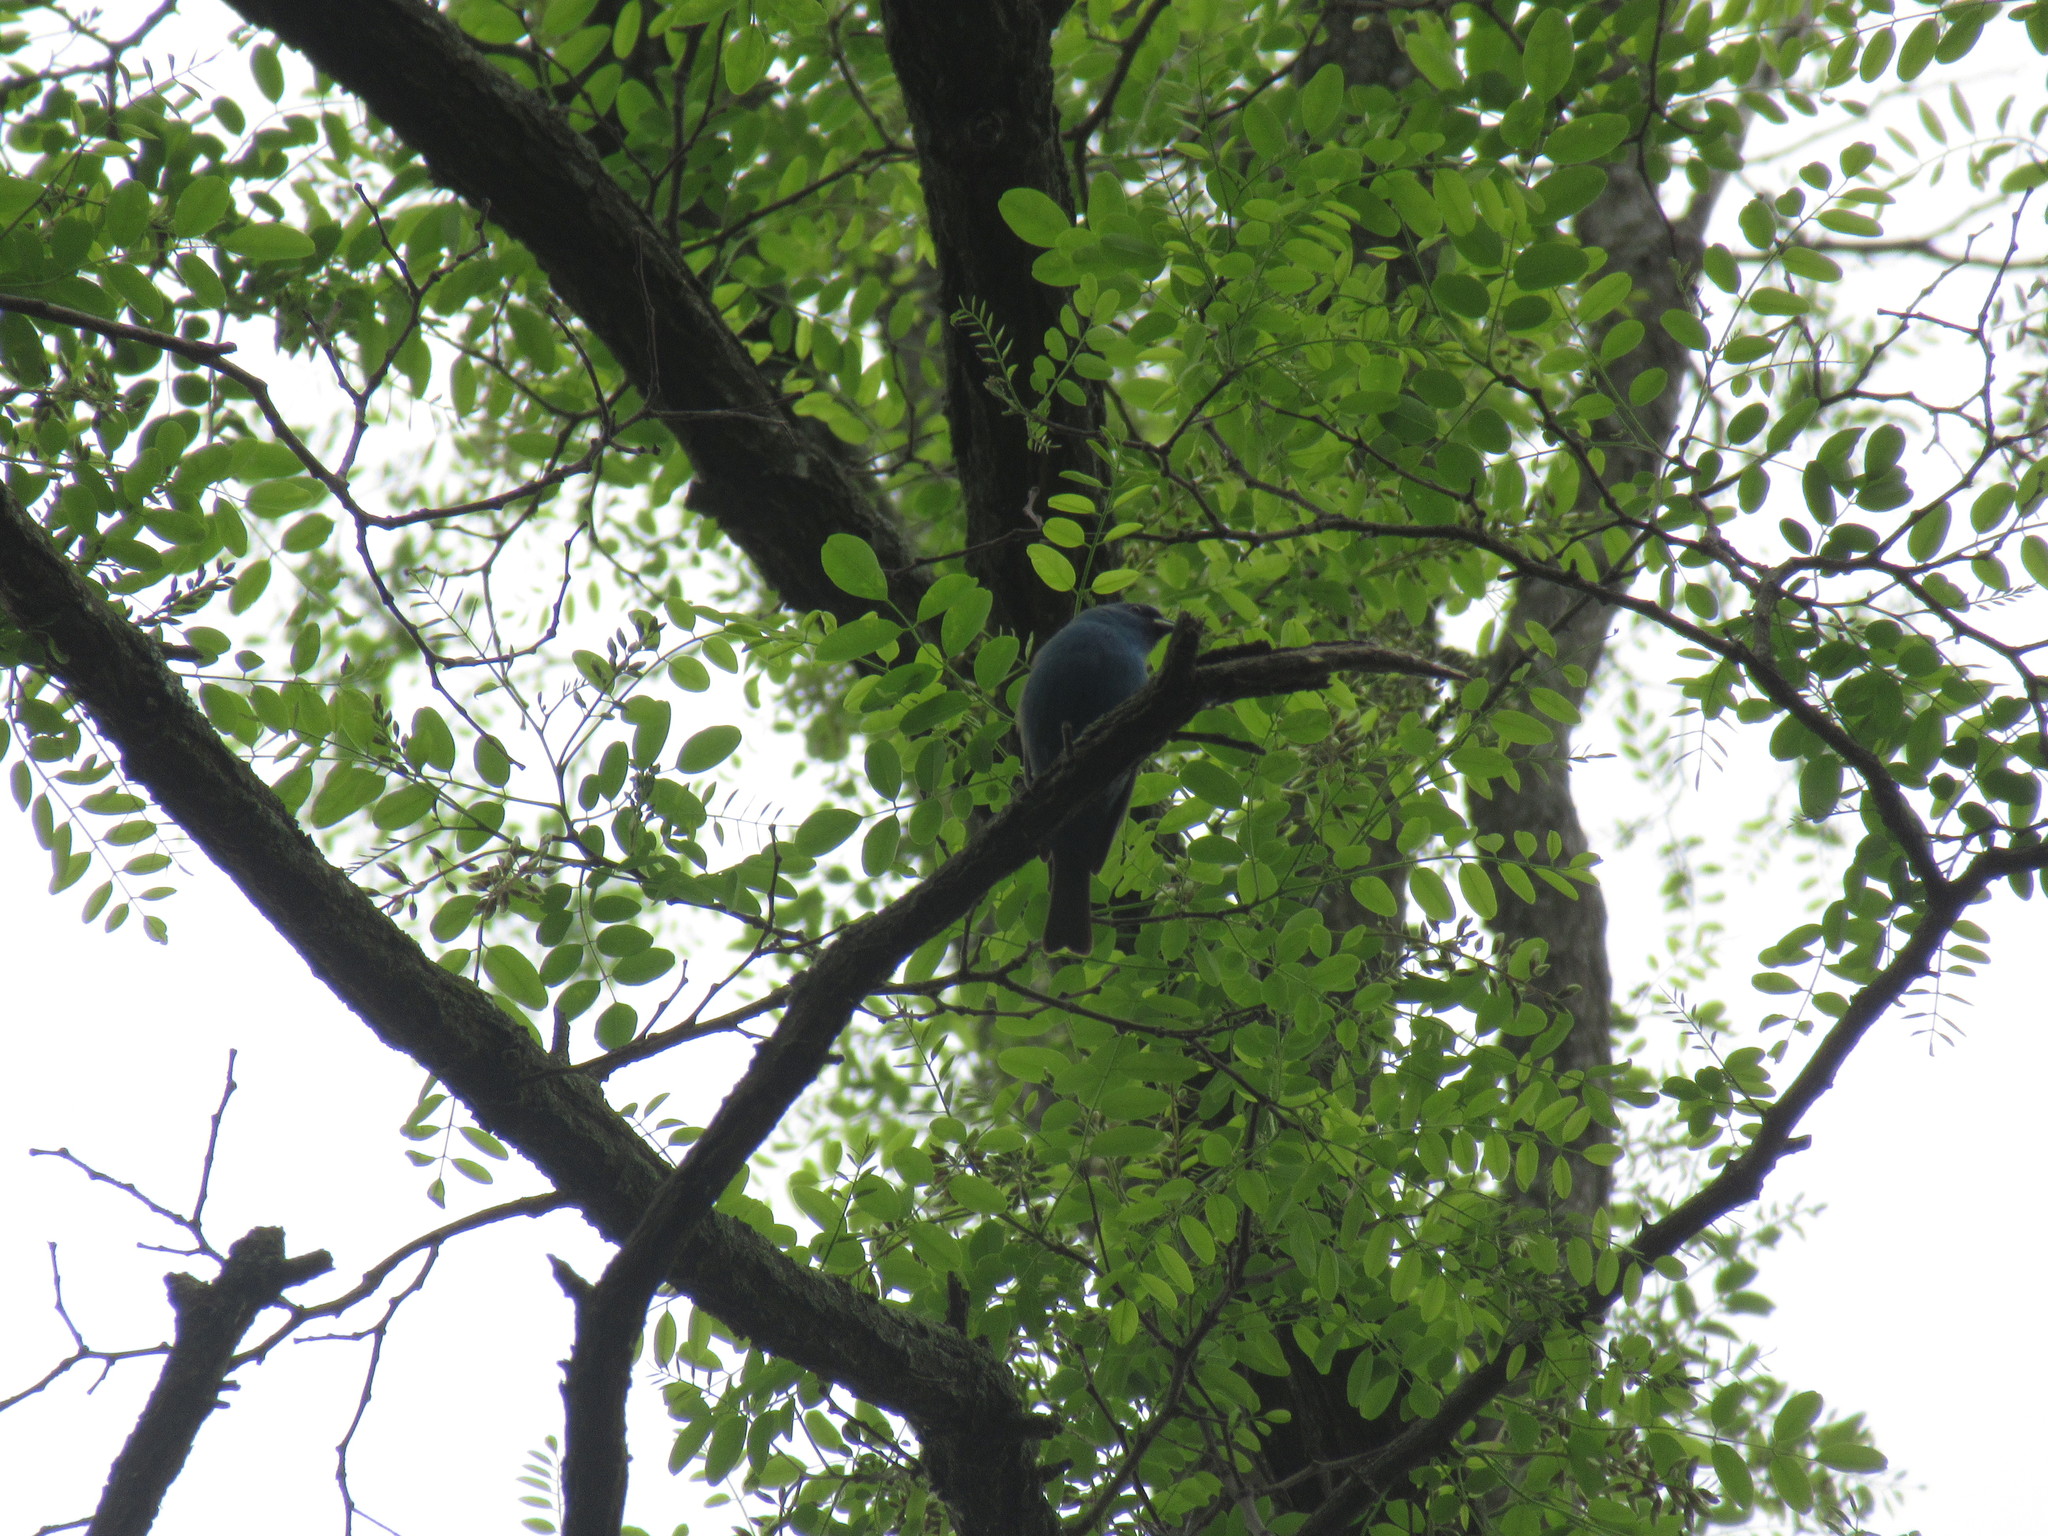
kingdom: Animalia
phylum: Chordata
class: Aves
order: Passeriformes
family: Cardinalidae
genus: Passerina
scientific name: Passerina cyanea
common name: Indigo bunting
